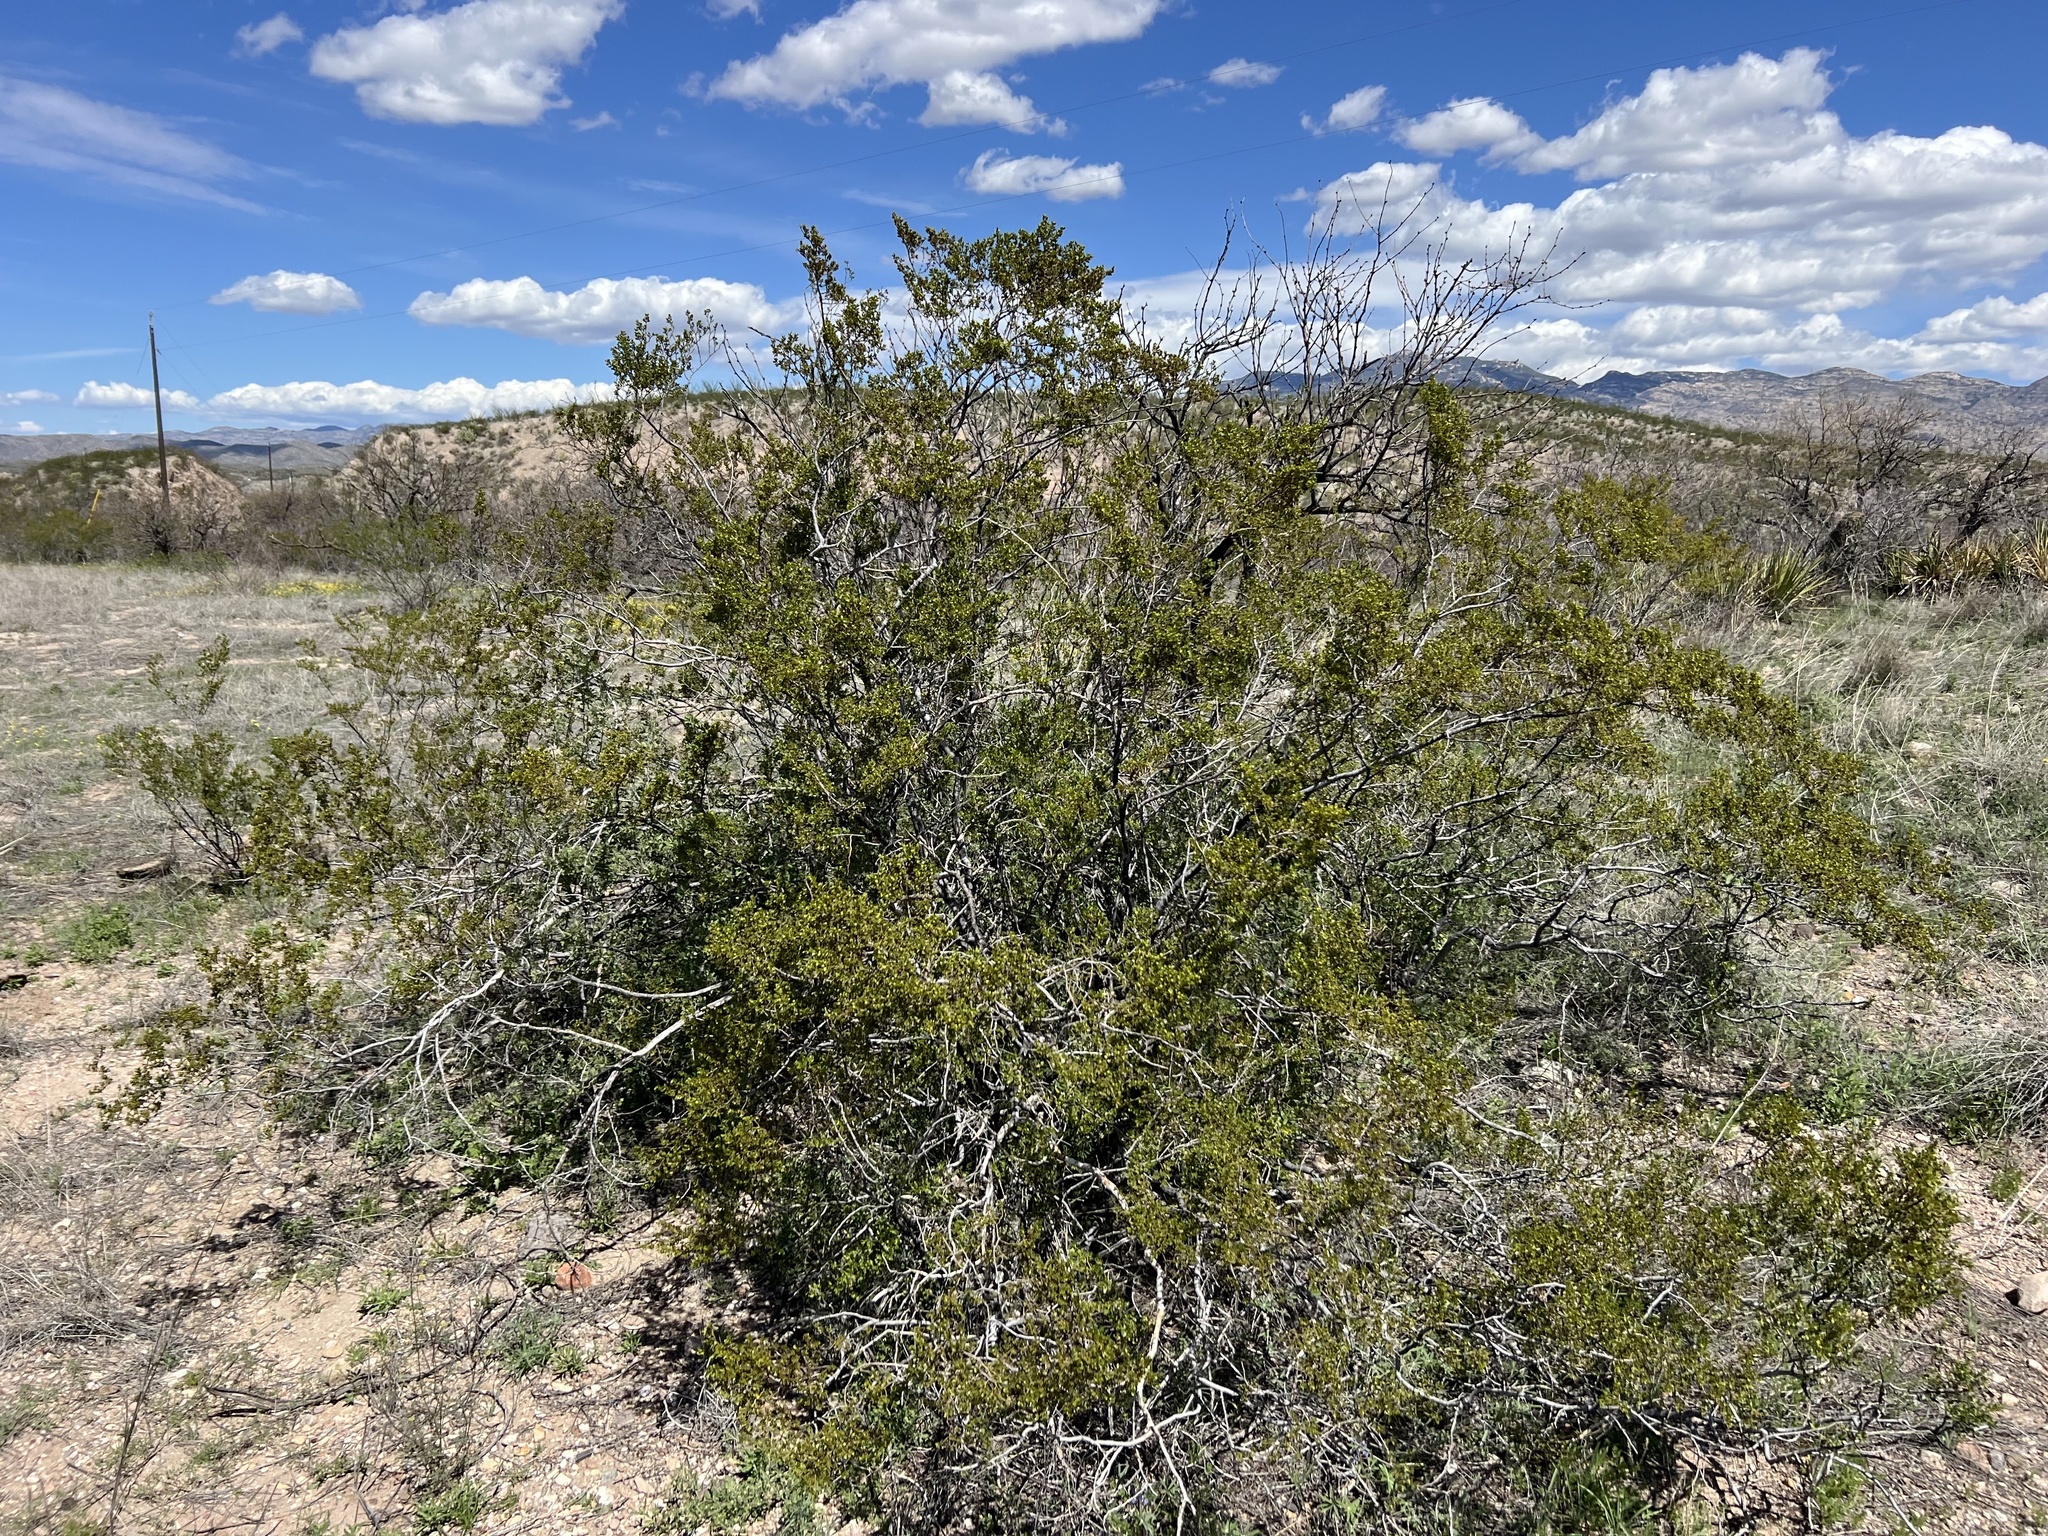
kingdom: Plantae
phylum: Tracheophyta
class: Magnoliopsida
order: Zygophyllales
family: Zygophyllaceae
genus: Larrea
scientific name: Larrea tridentata
